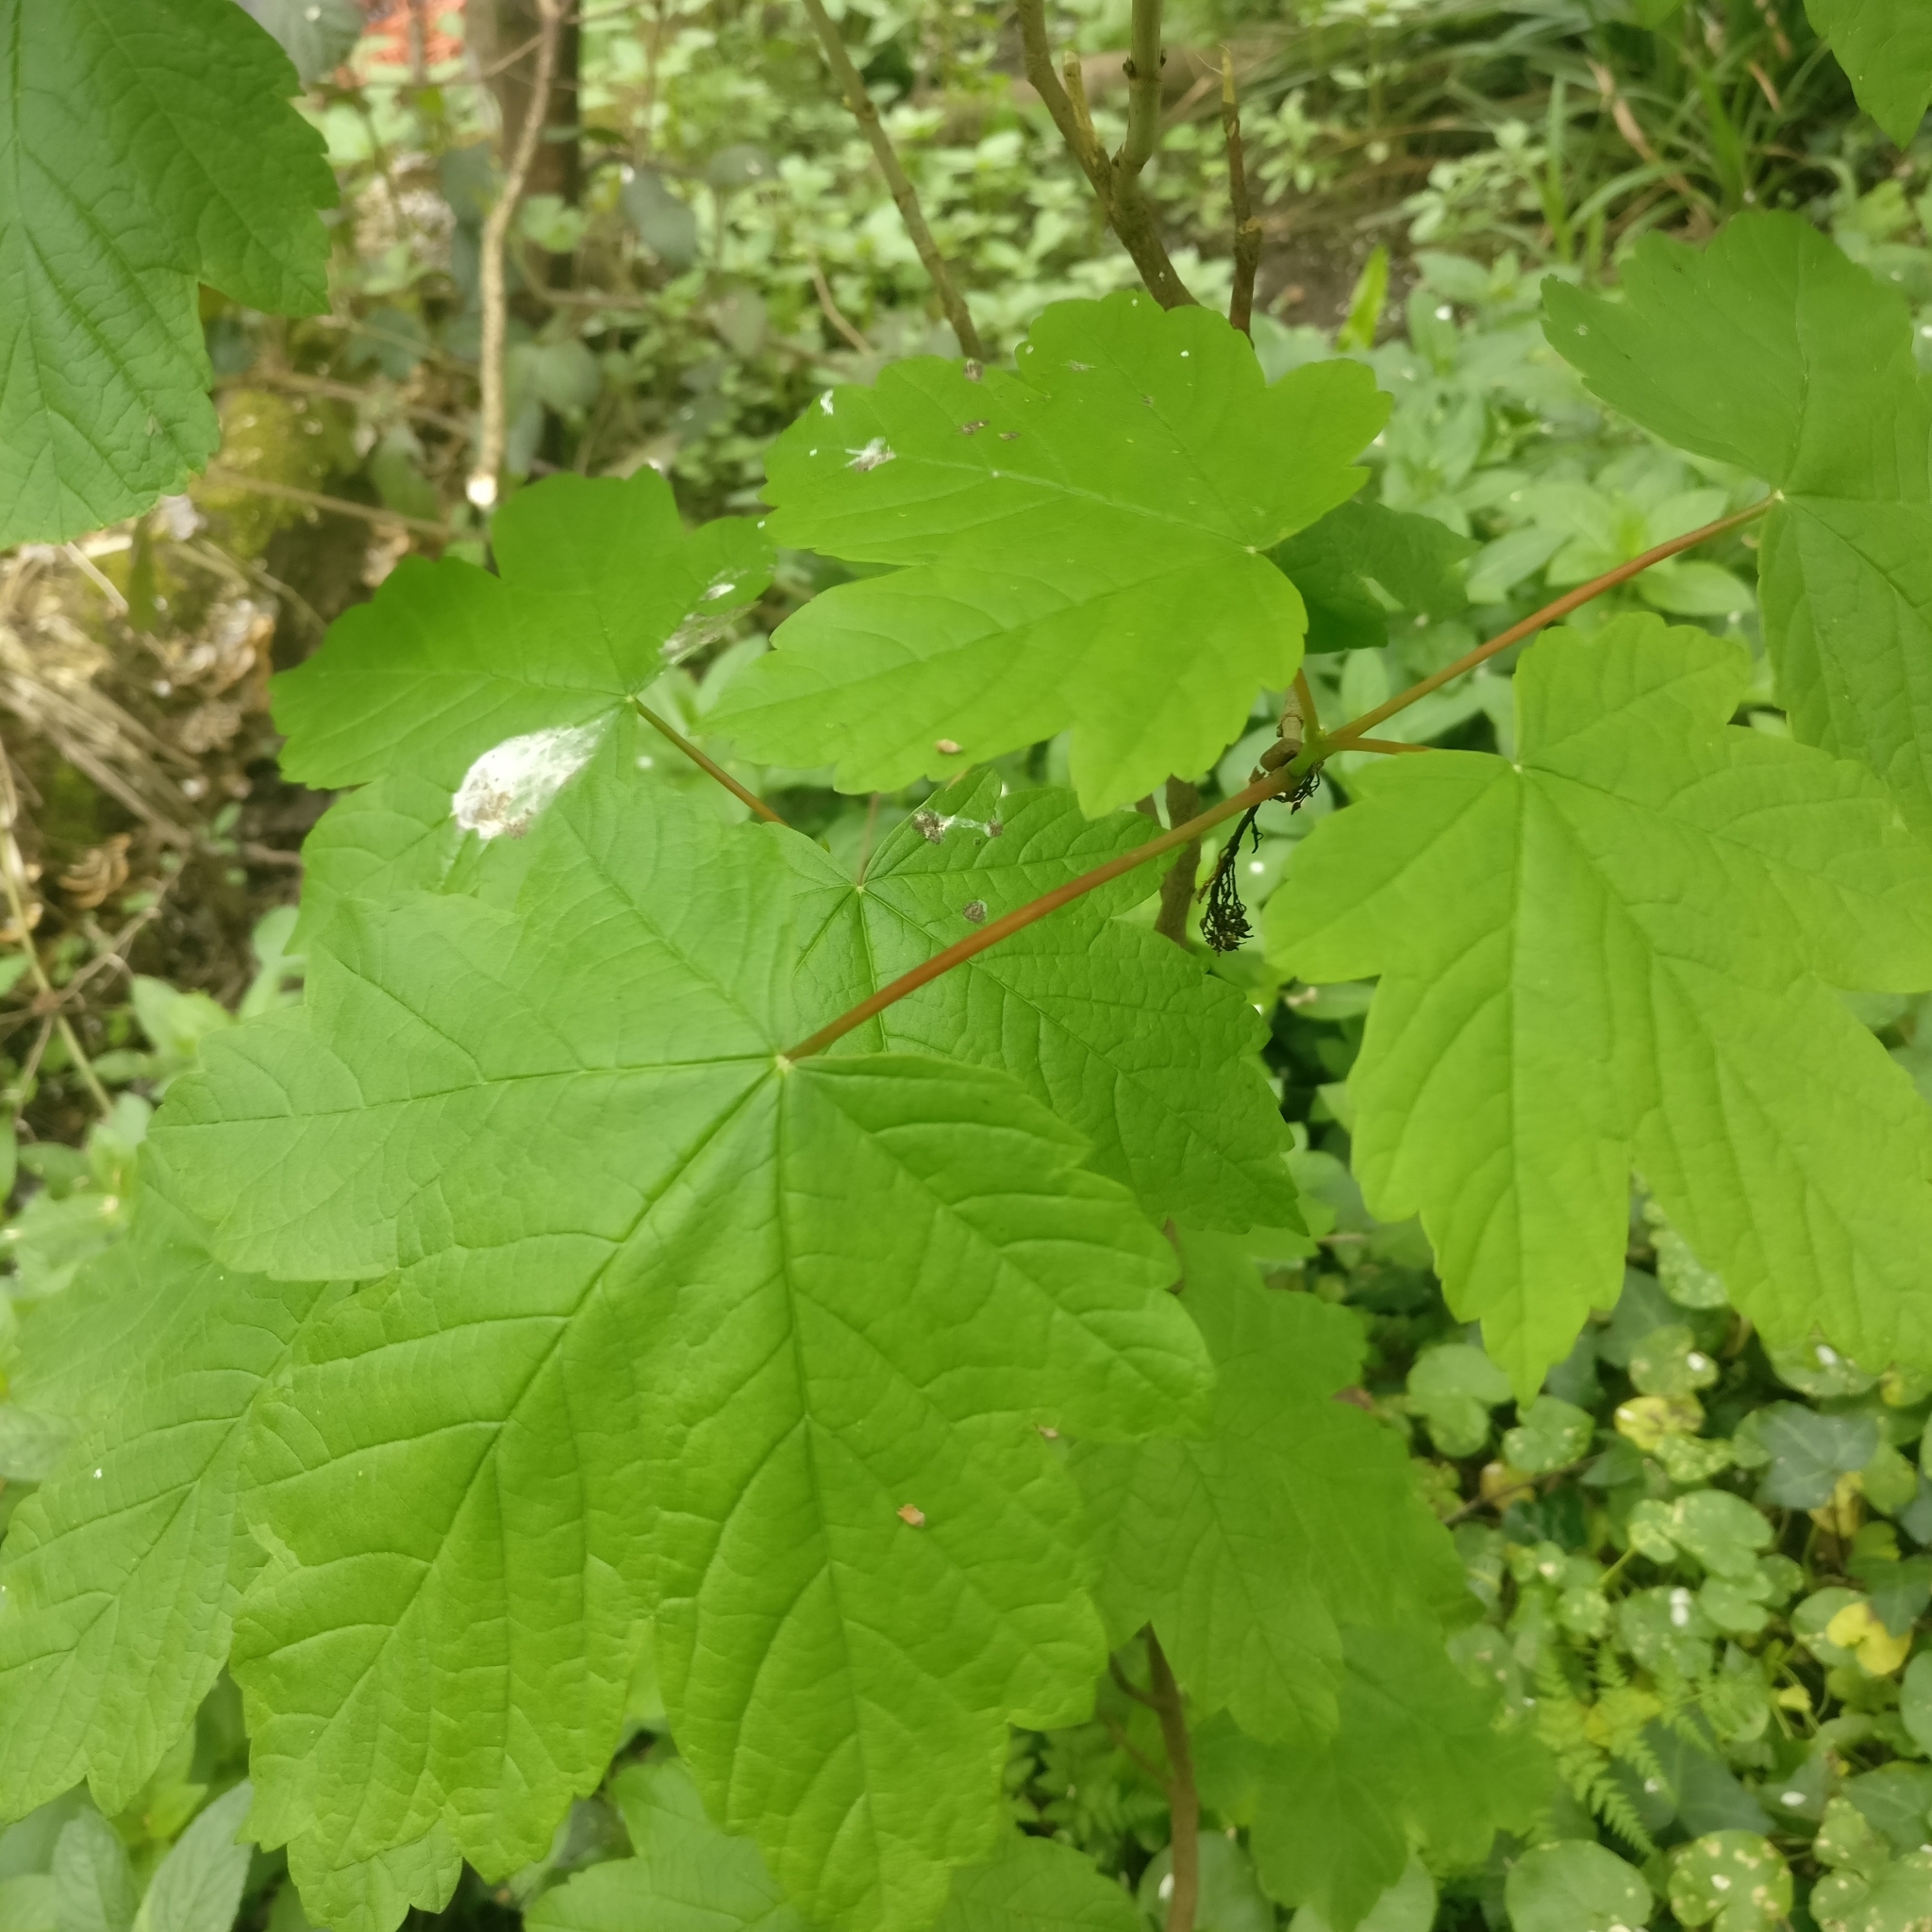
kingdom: Plantae
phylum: Tracheophyta
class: Magnoliopsida
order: Sapindales
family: Sapindaceae
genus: Acer
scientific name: Acer pseudoplatanus
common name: Sycamore
